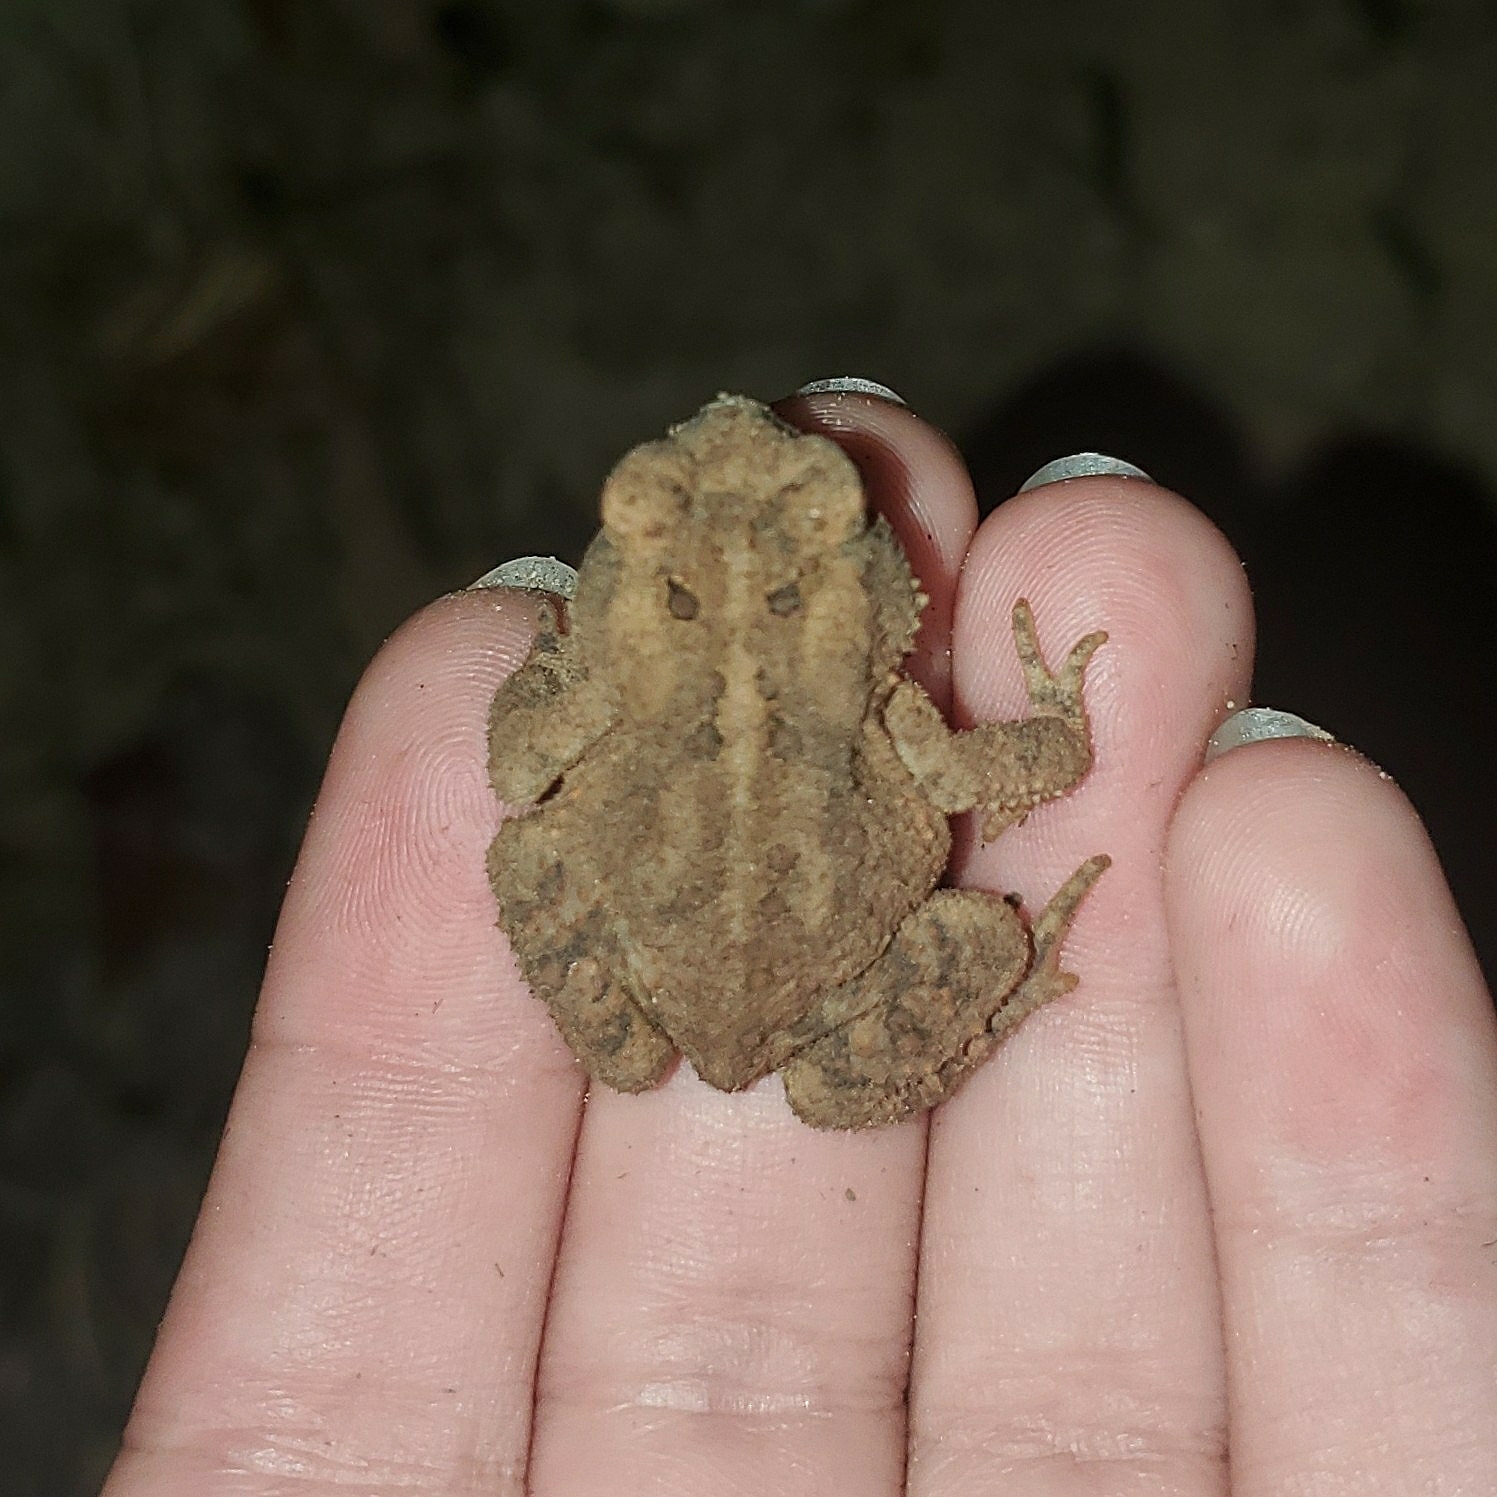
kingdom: Animalia
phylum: Chordata
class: Amphibia
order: Anura
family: Bufonidae
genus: Anaxyrus
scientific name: Anaxyrus americanus
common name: American toad
